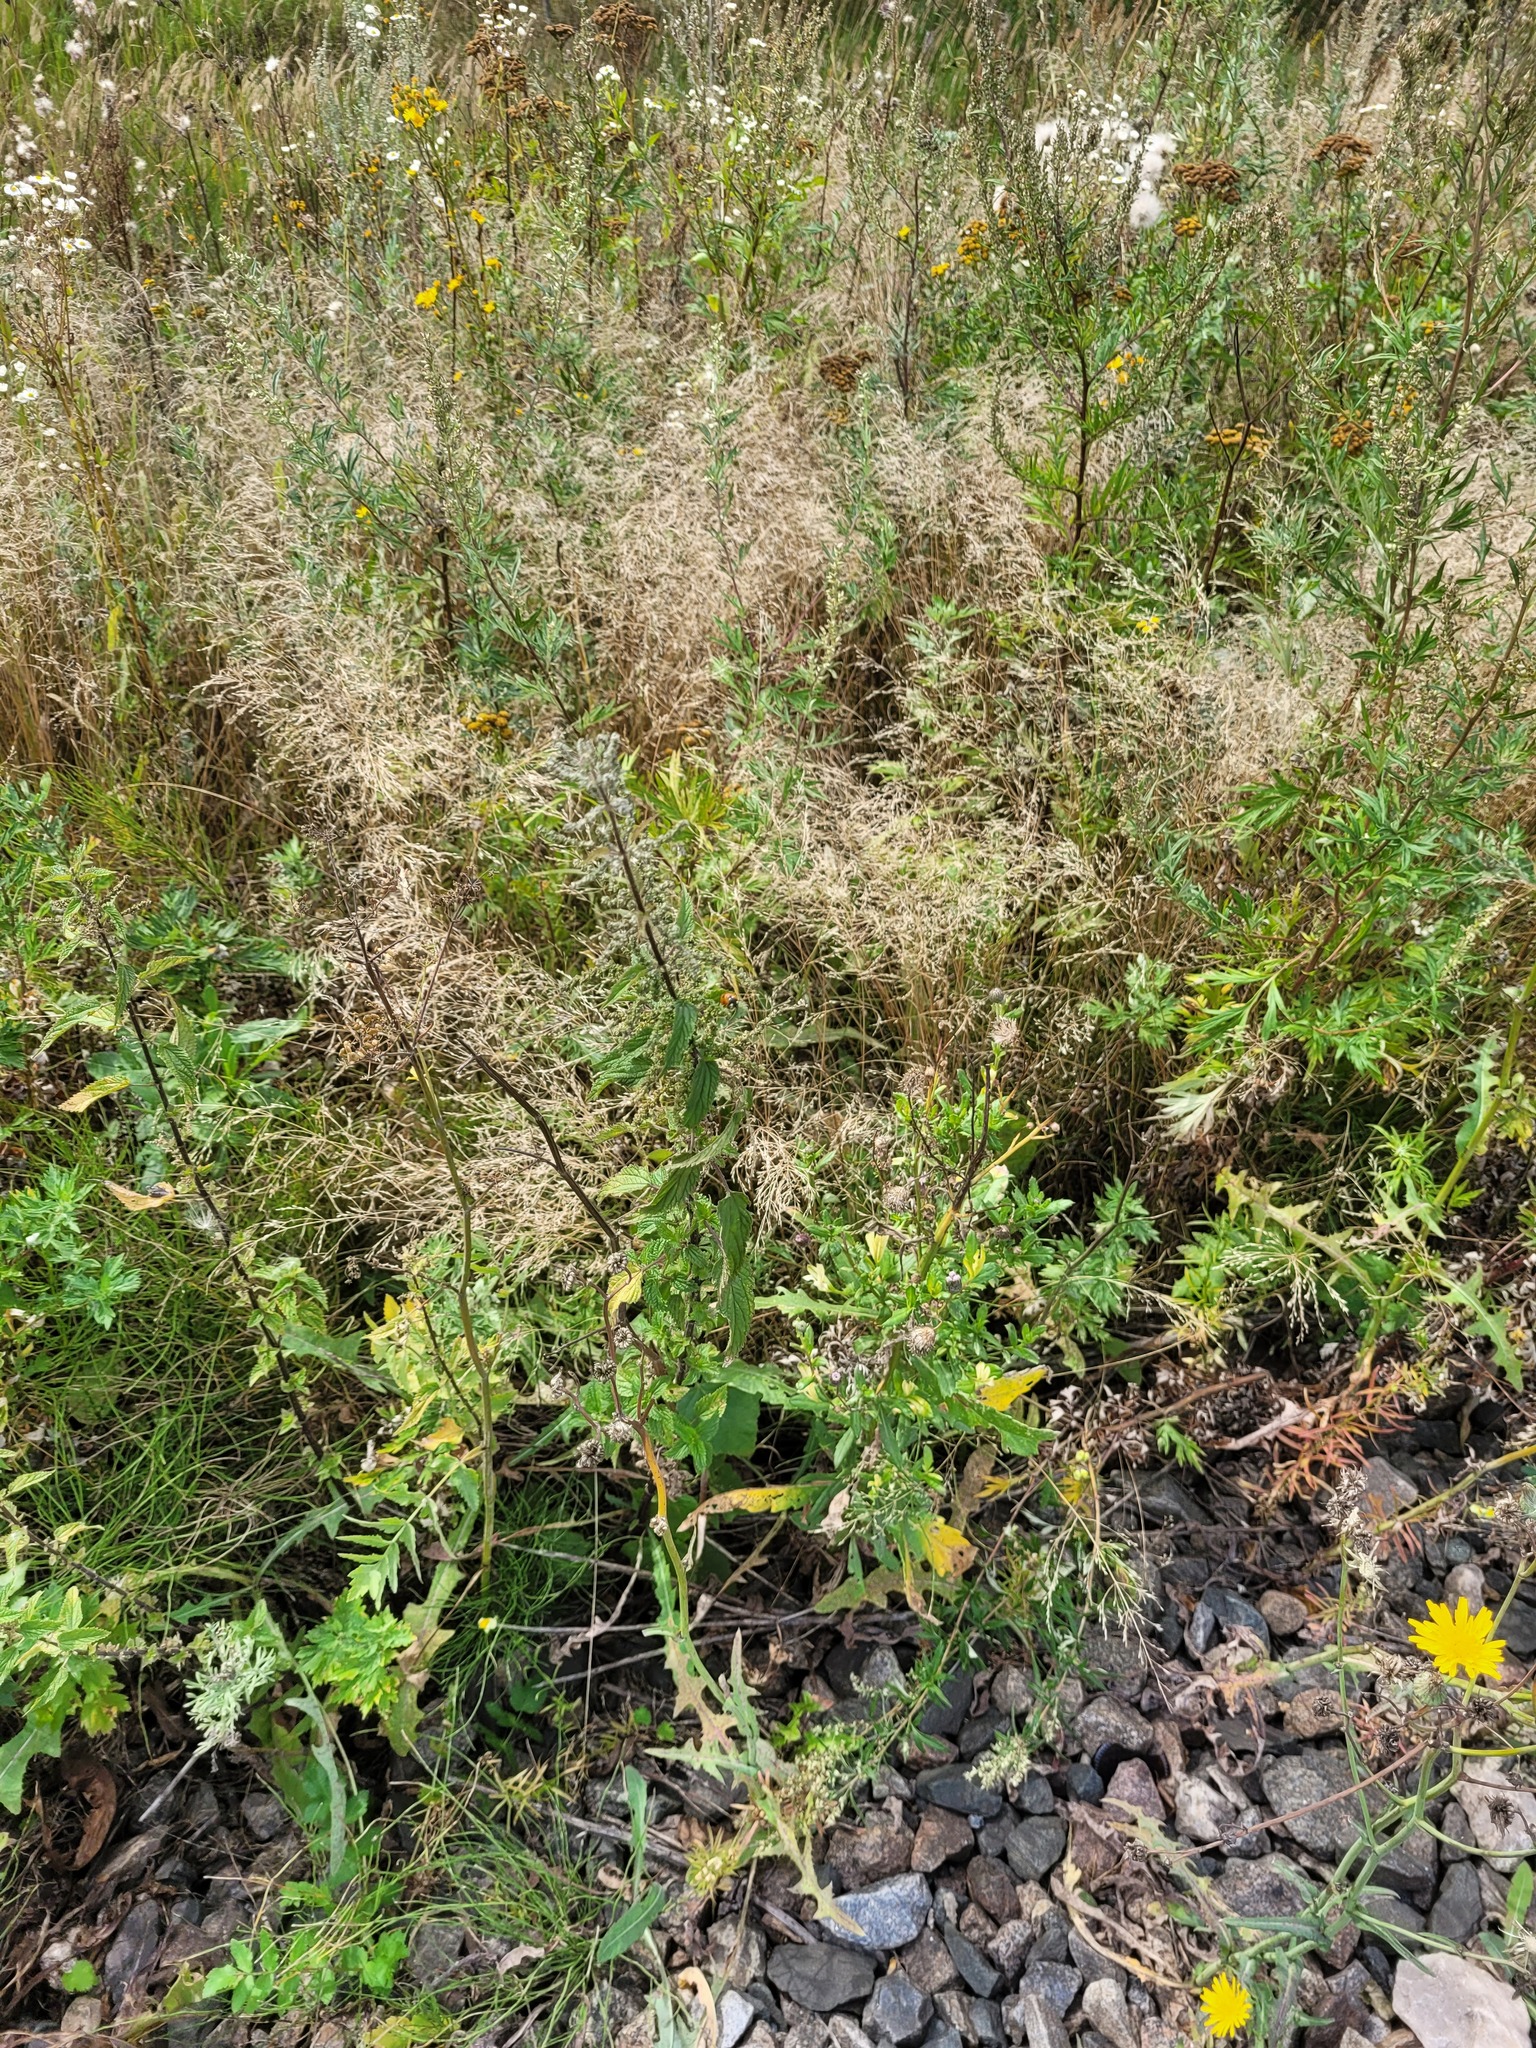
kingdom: Plantae
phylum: Tracheophyta
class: Magnoliopsida
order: Rosales
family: Urticaceae
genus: Urtica
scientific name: Urtica dioica
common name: Common nettle
